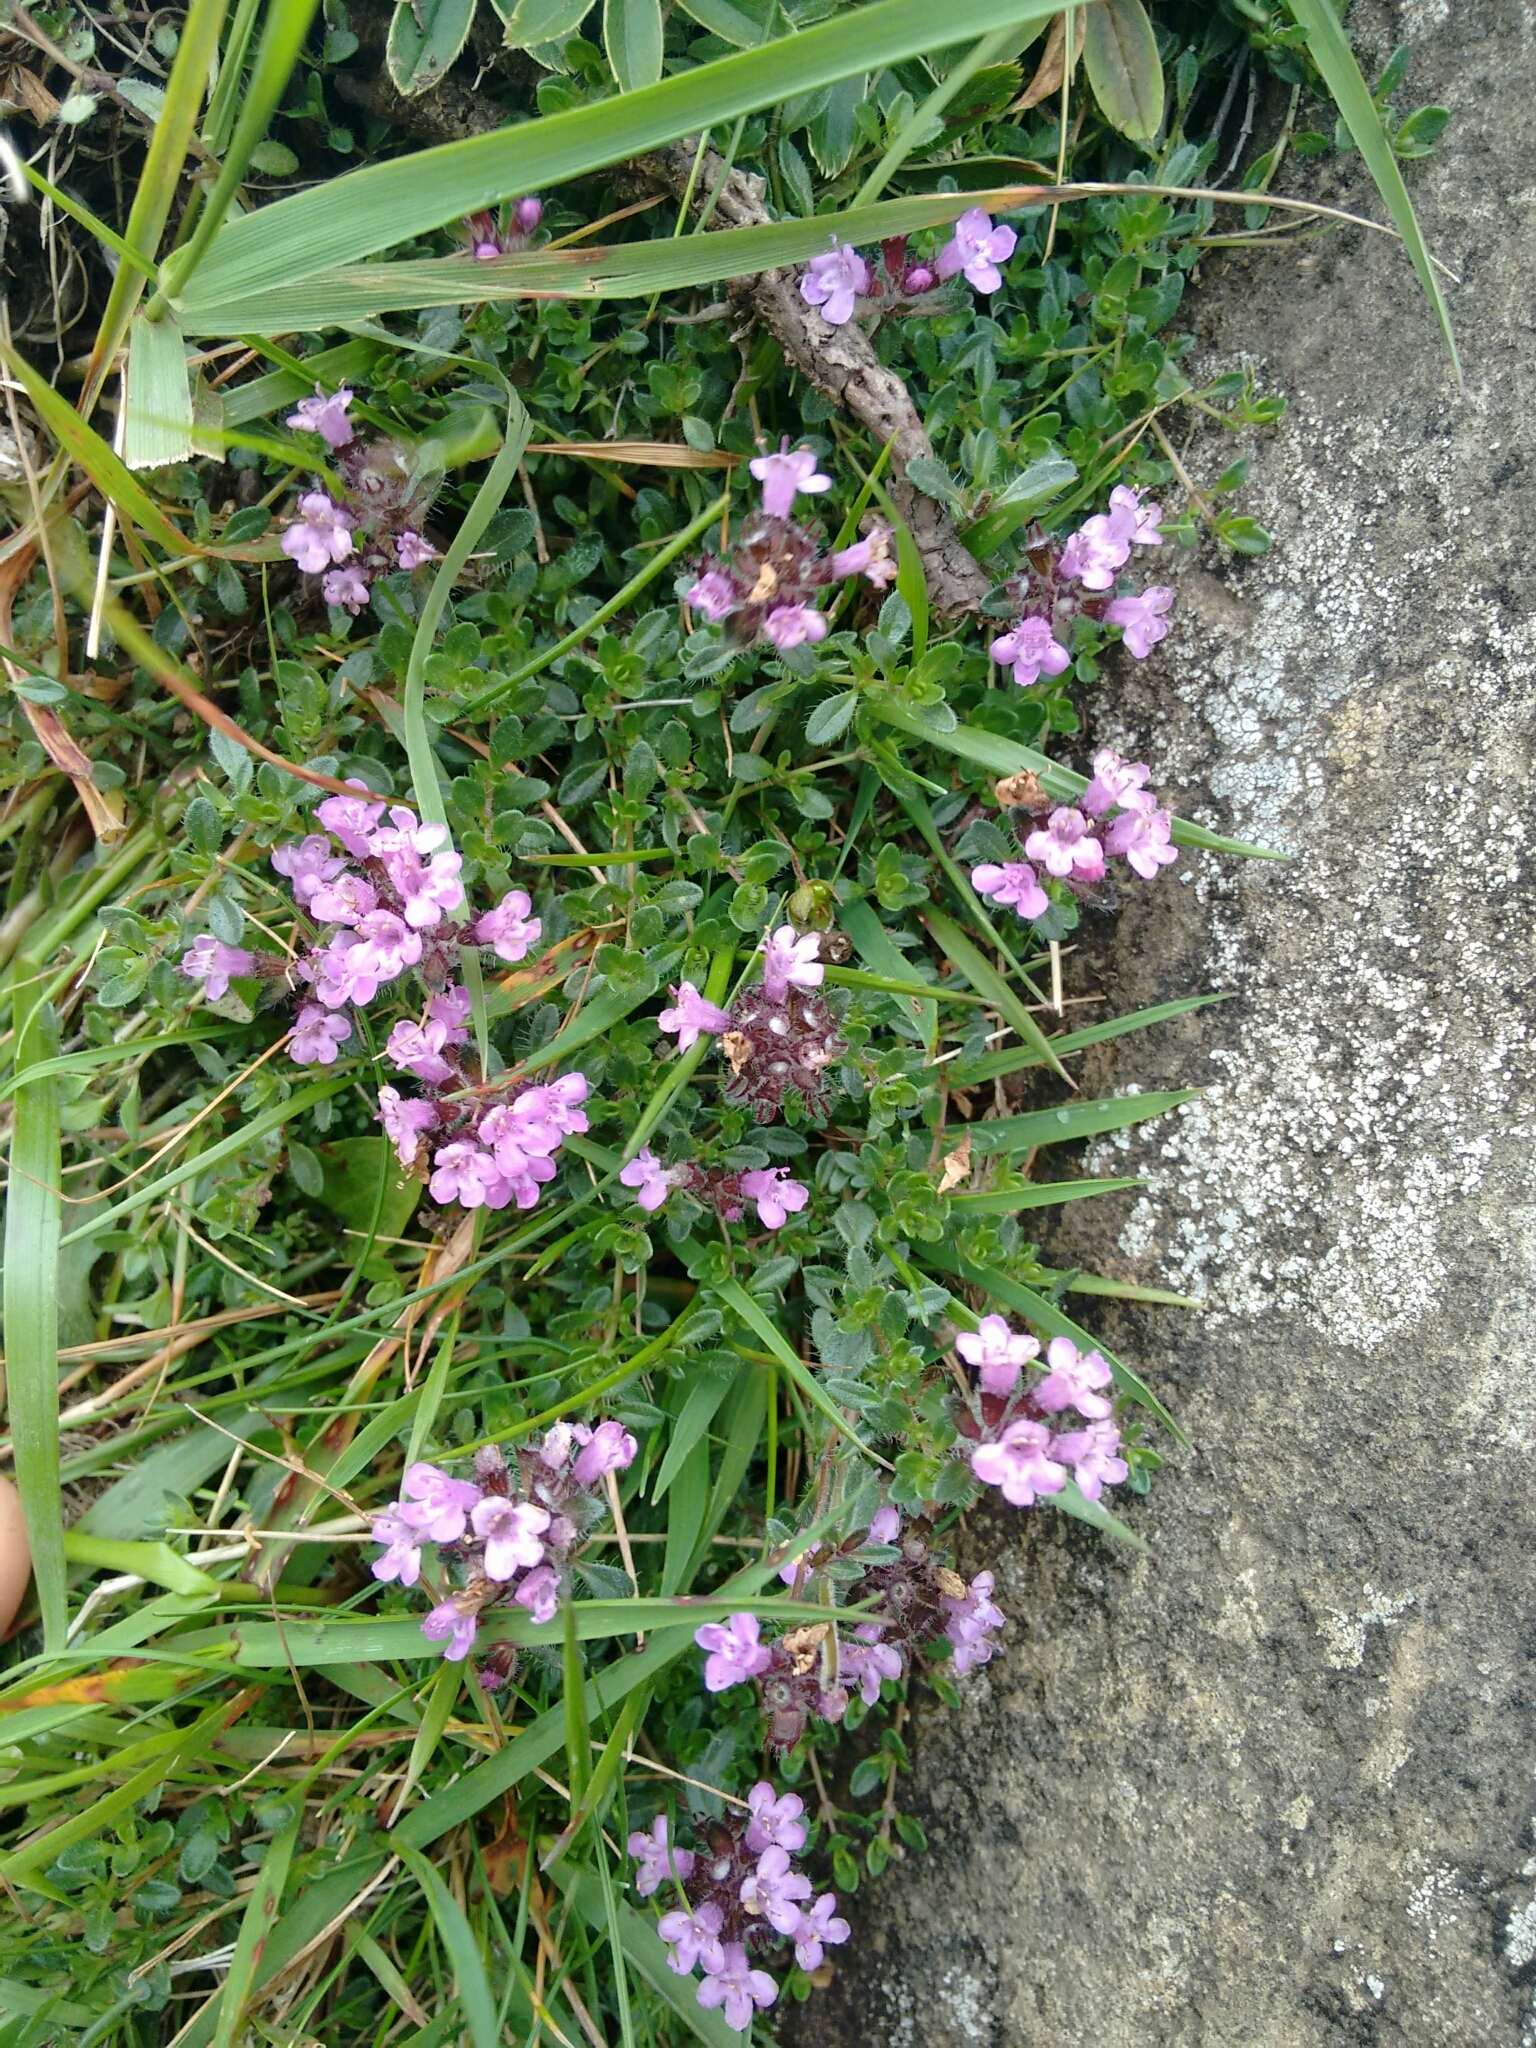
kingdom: Plantae
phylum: Tracheophyta
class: Magnoliopsida
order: Lamiales
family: Lamiaceae
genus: Thymus
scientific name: Thymus praecox
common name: Wild thyme
